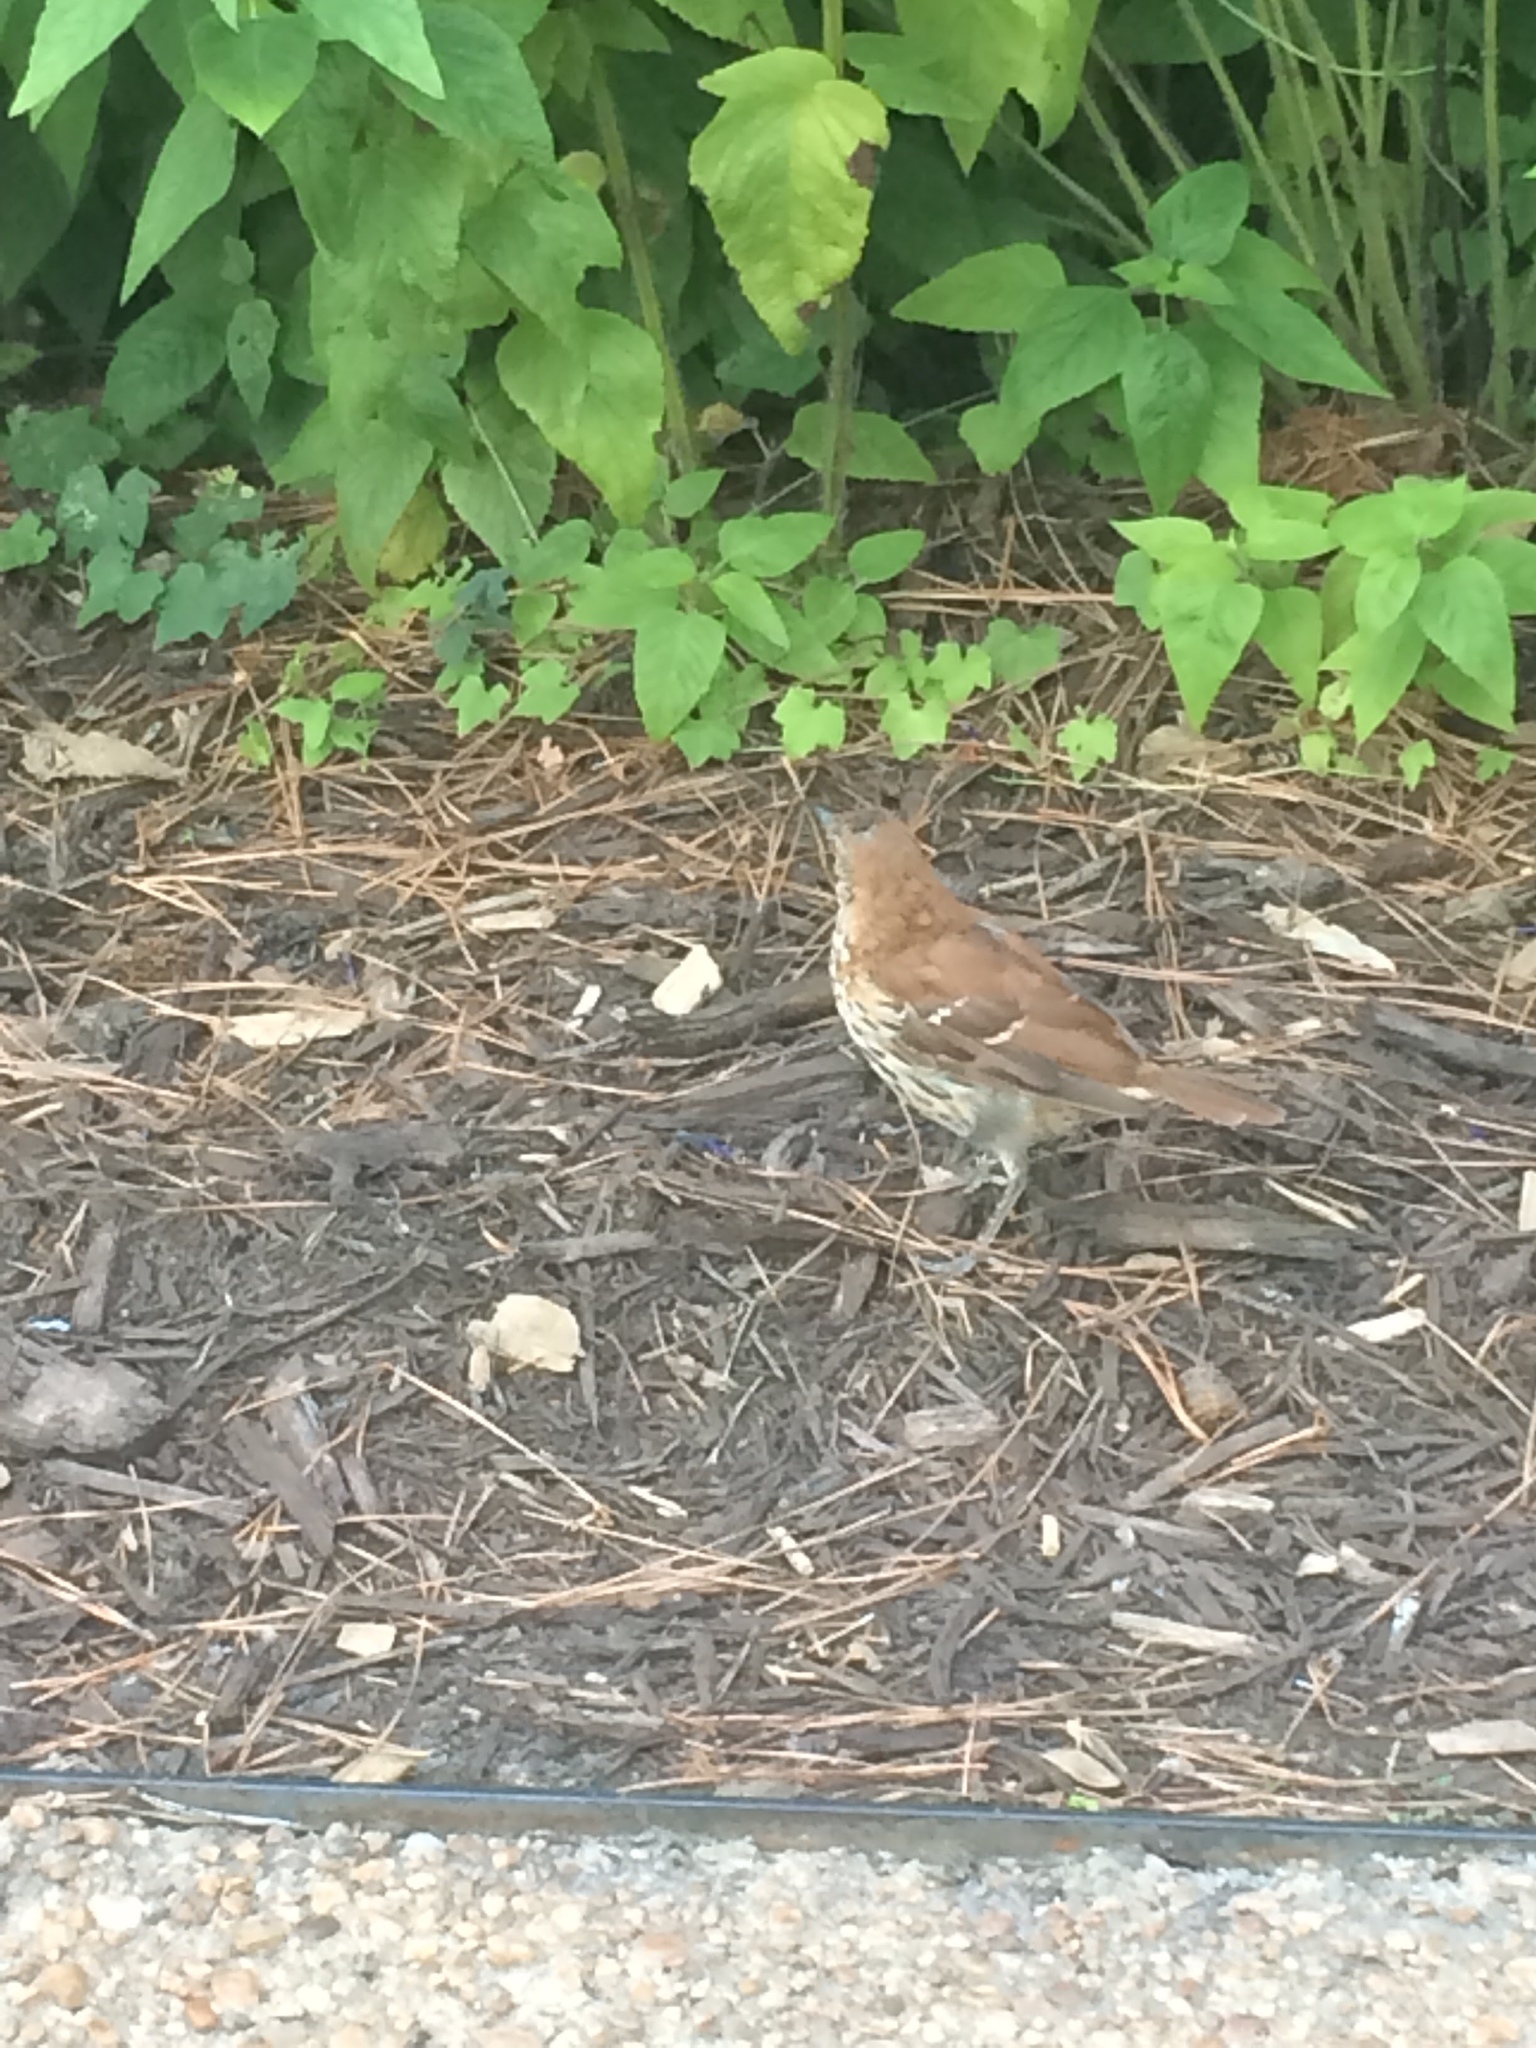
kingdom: Animalia
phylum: Chordata
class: Aves
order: Passeriformes
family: Mimidae
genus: Toxostoma
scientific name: Toxostoma rufum
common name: Brown thrasher
